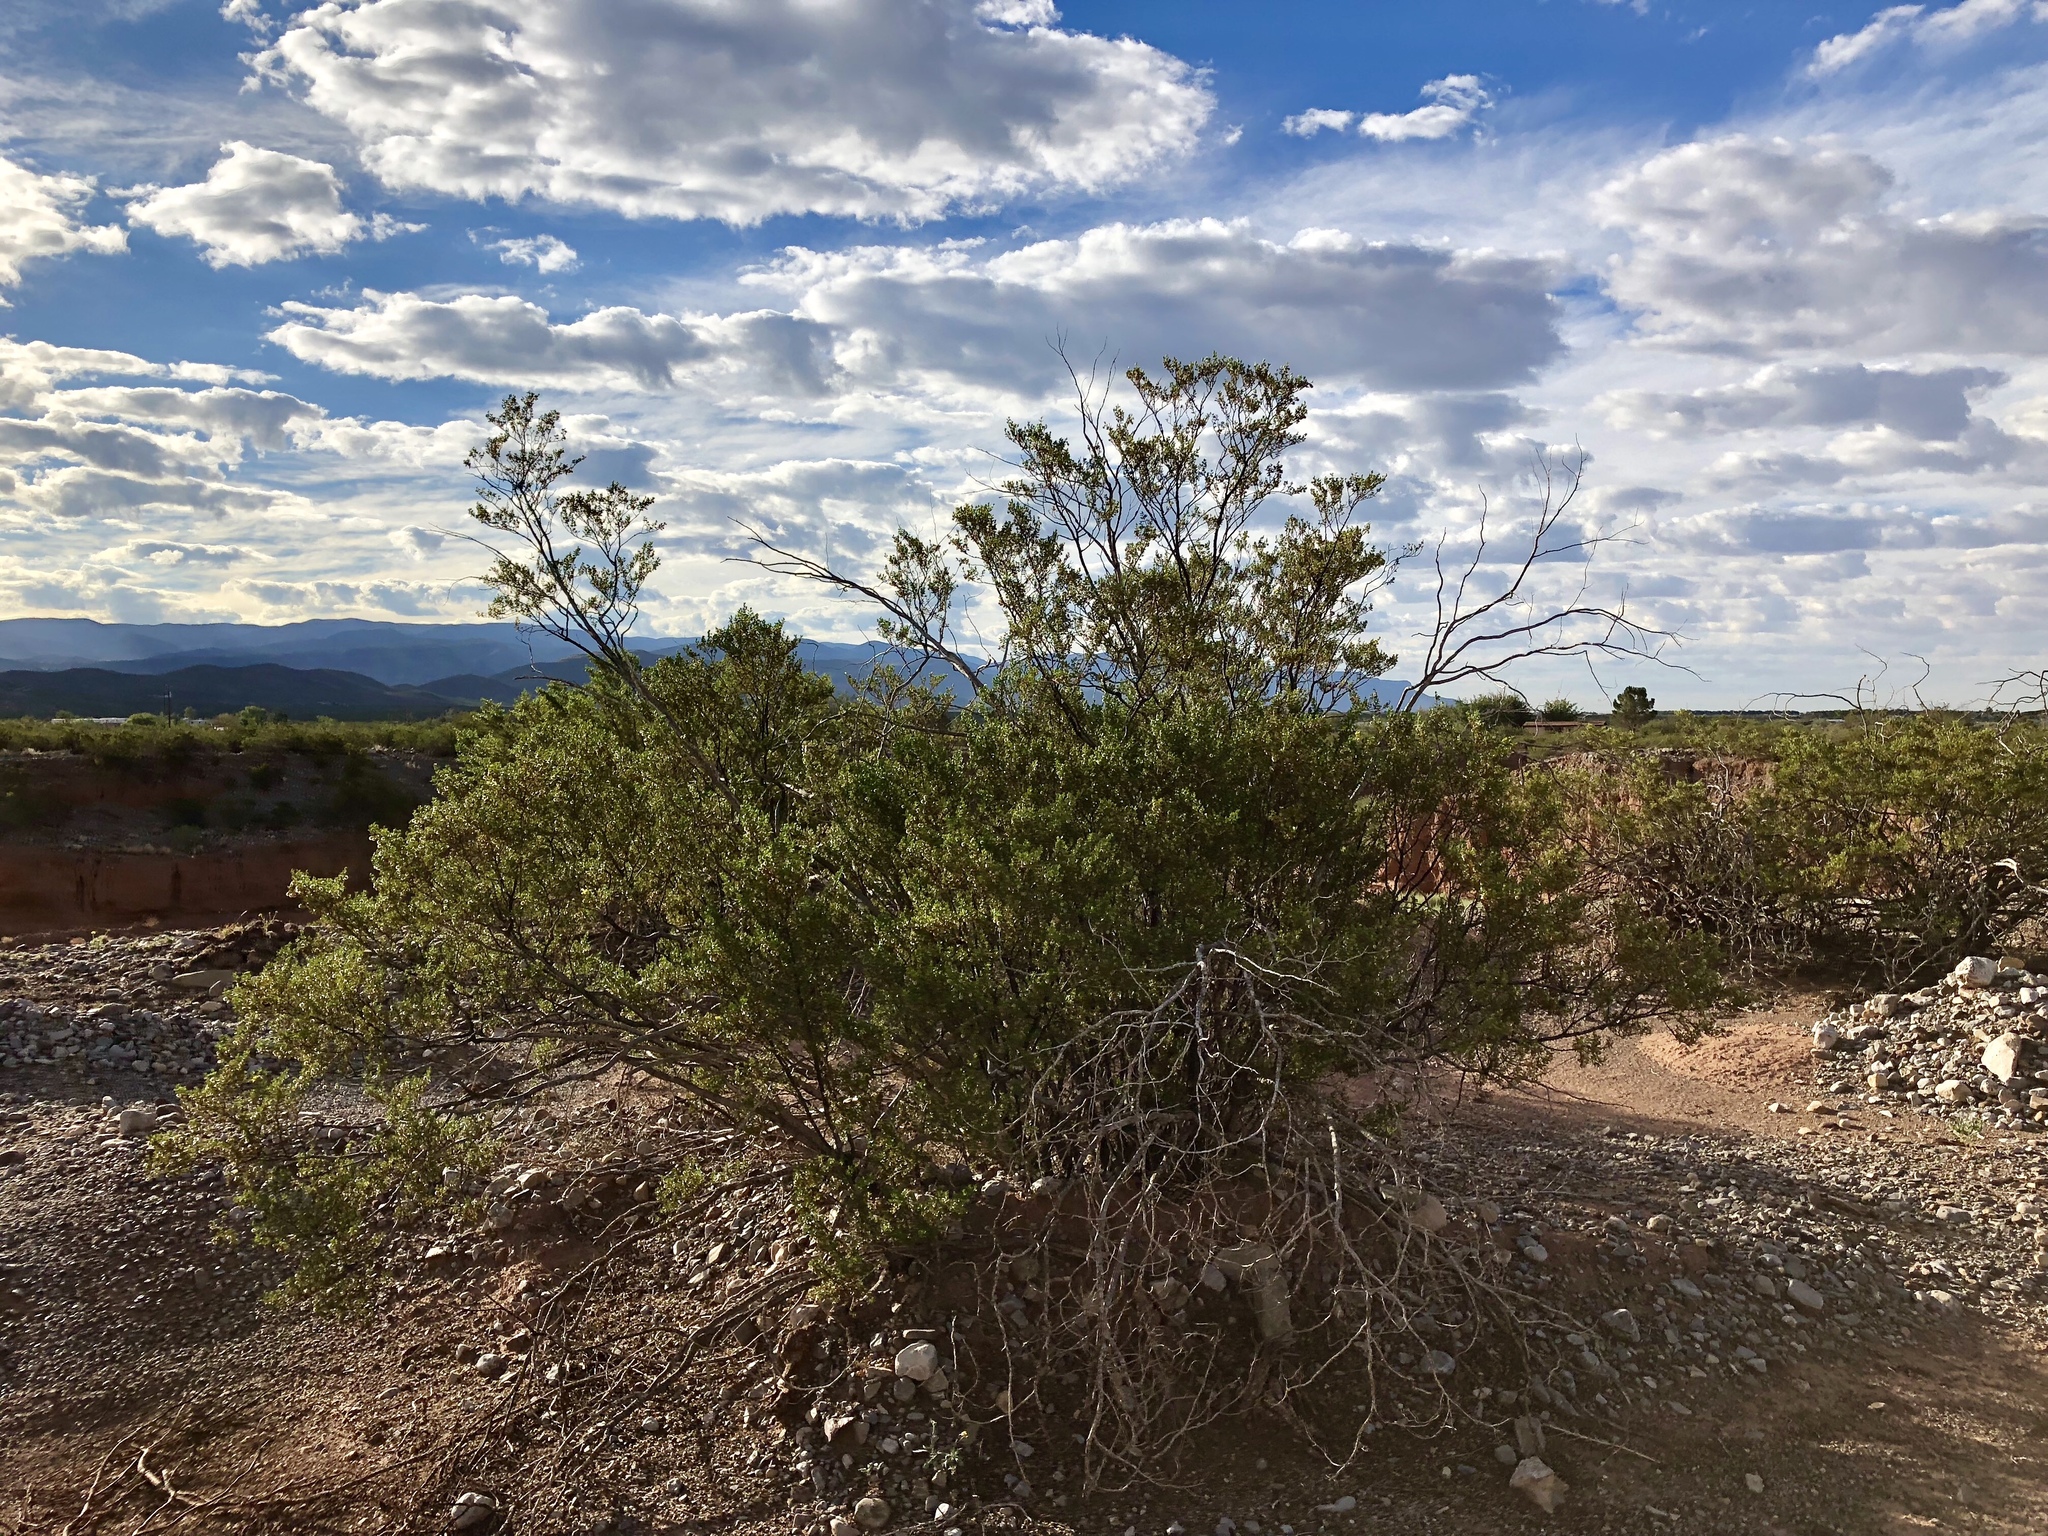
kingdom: Plantae
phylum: Tracheophyta
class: Magnoliopsida
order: Zygophyllales
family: Zygophyllaceae
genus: Larrea
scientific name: Larrea tridentata
